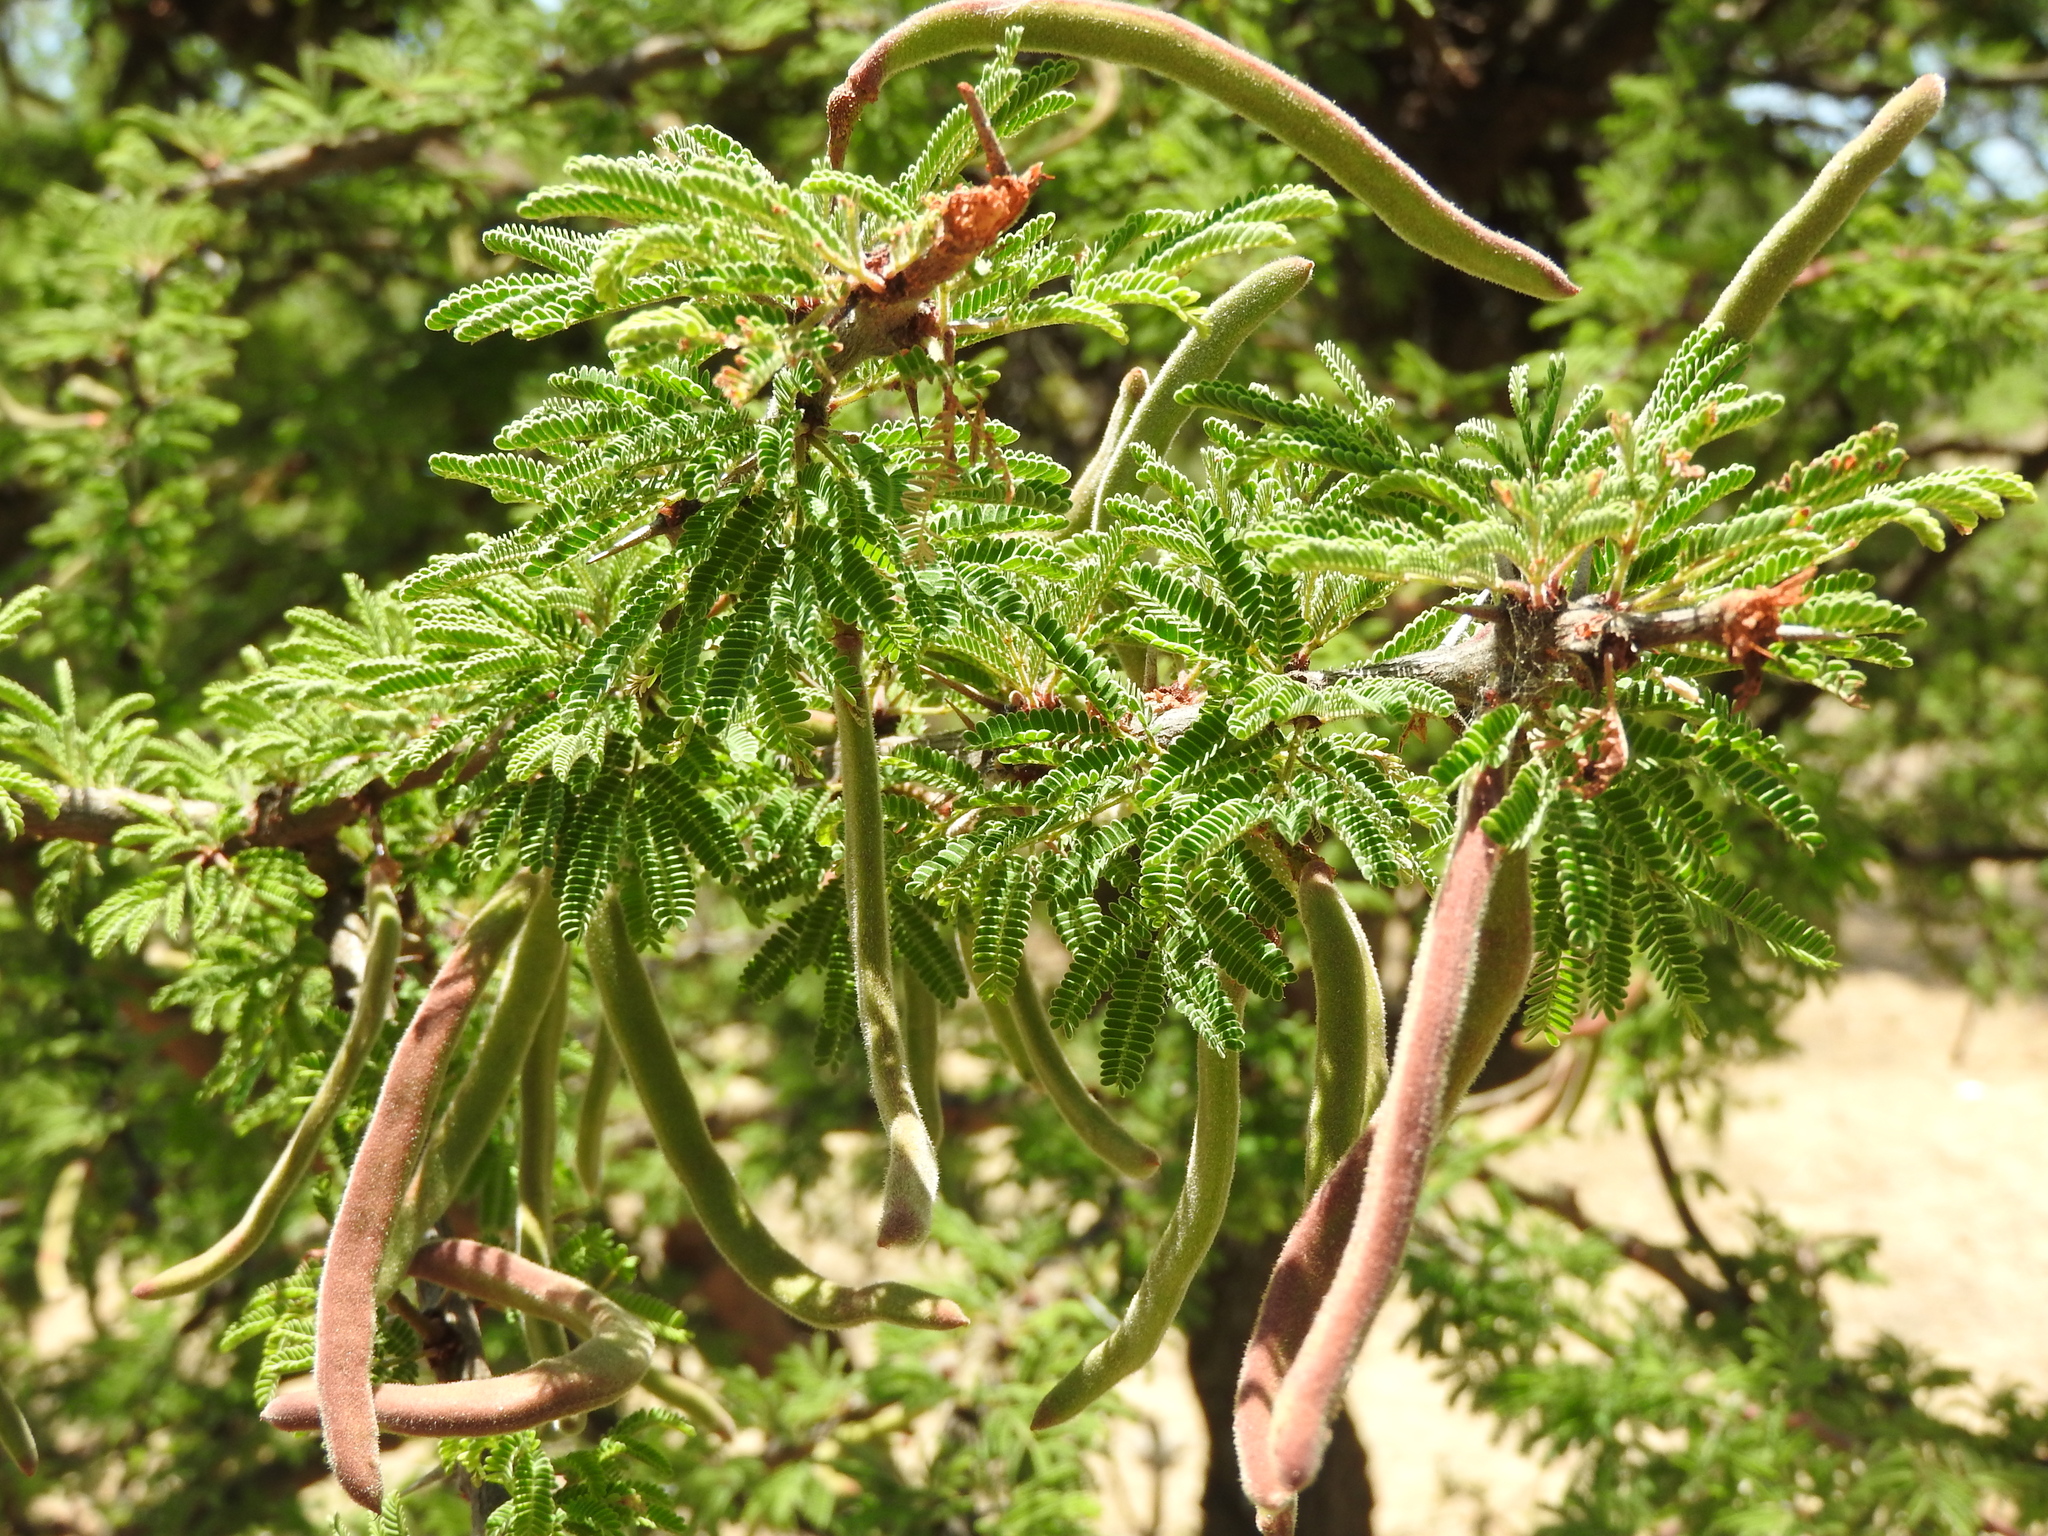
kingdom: Plantae
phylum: Tracheophyta
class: Magnoliopsida
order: Fabales
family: Fabaceae
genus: Vachellia
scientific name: Vachellia schaffneri
